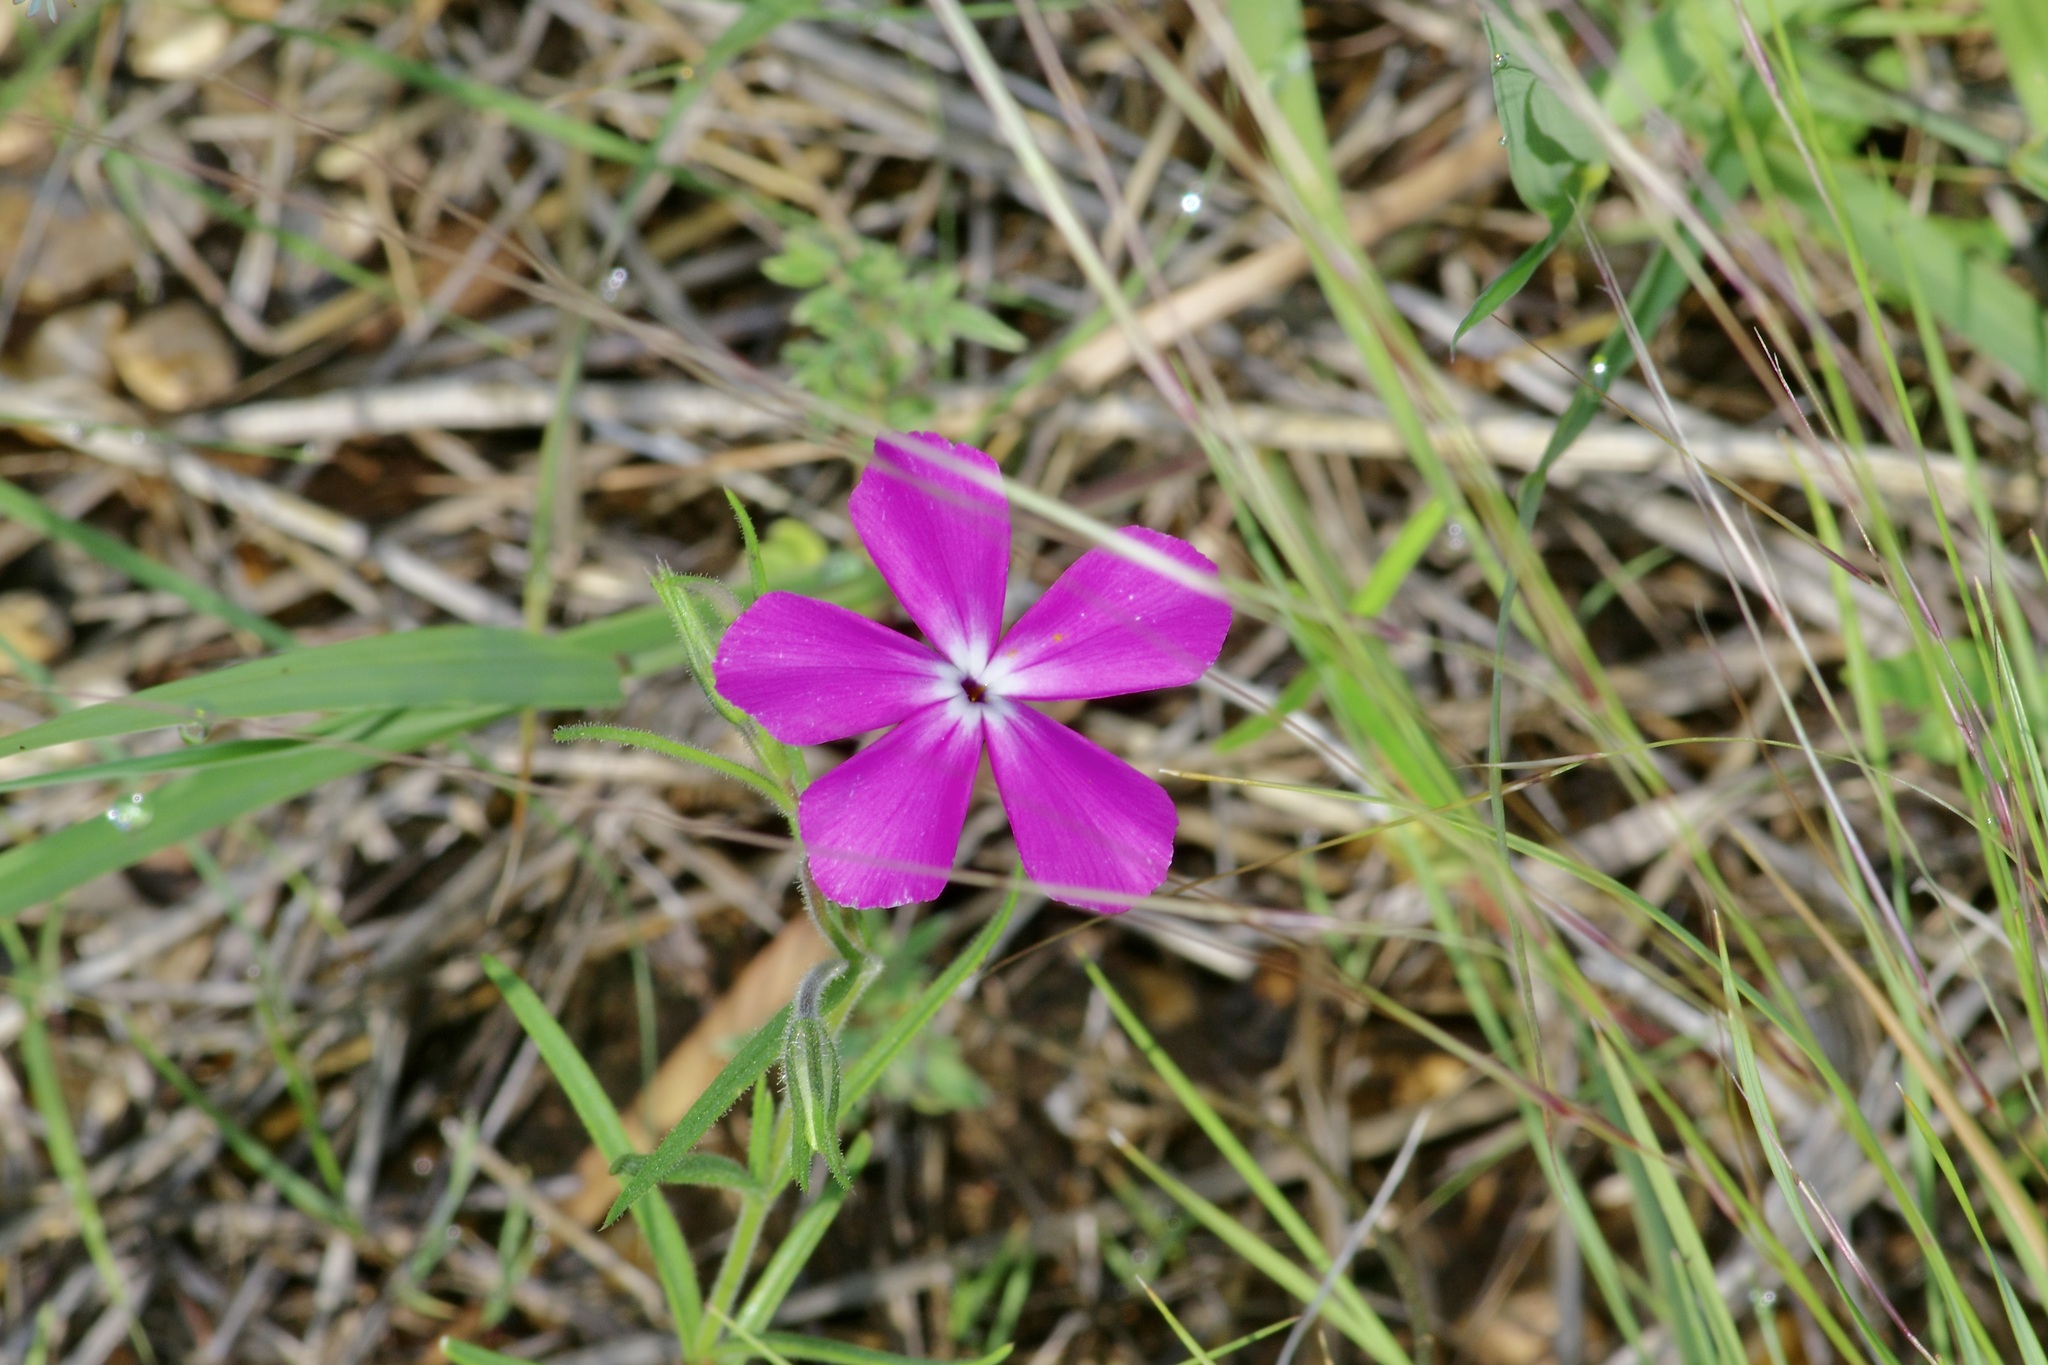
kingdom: Plantae
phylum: Tracheophyta
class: Magnoliopsida
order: Ericales
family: Polemoniaceae
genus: Phlox
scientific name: Phlox nana
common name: Santa fe phlox
